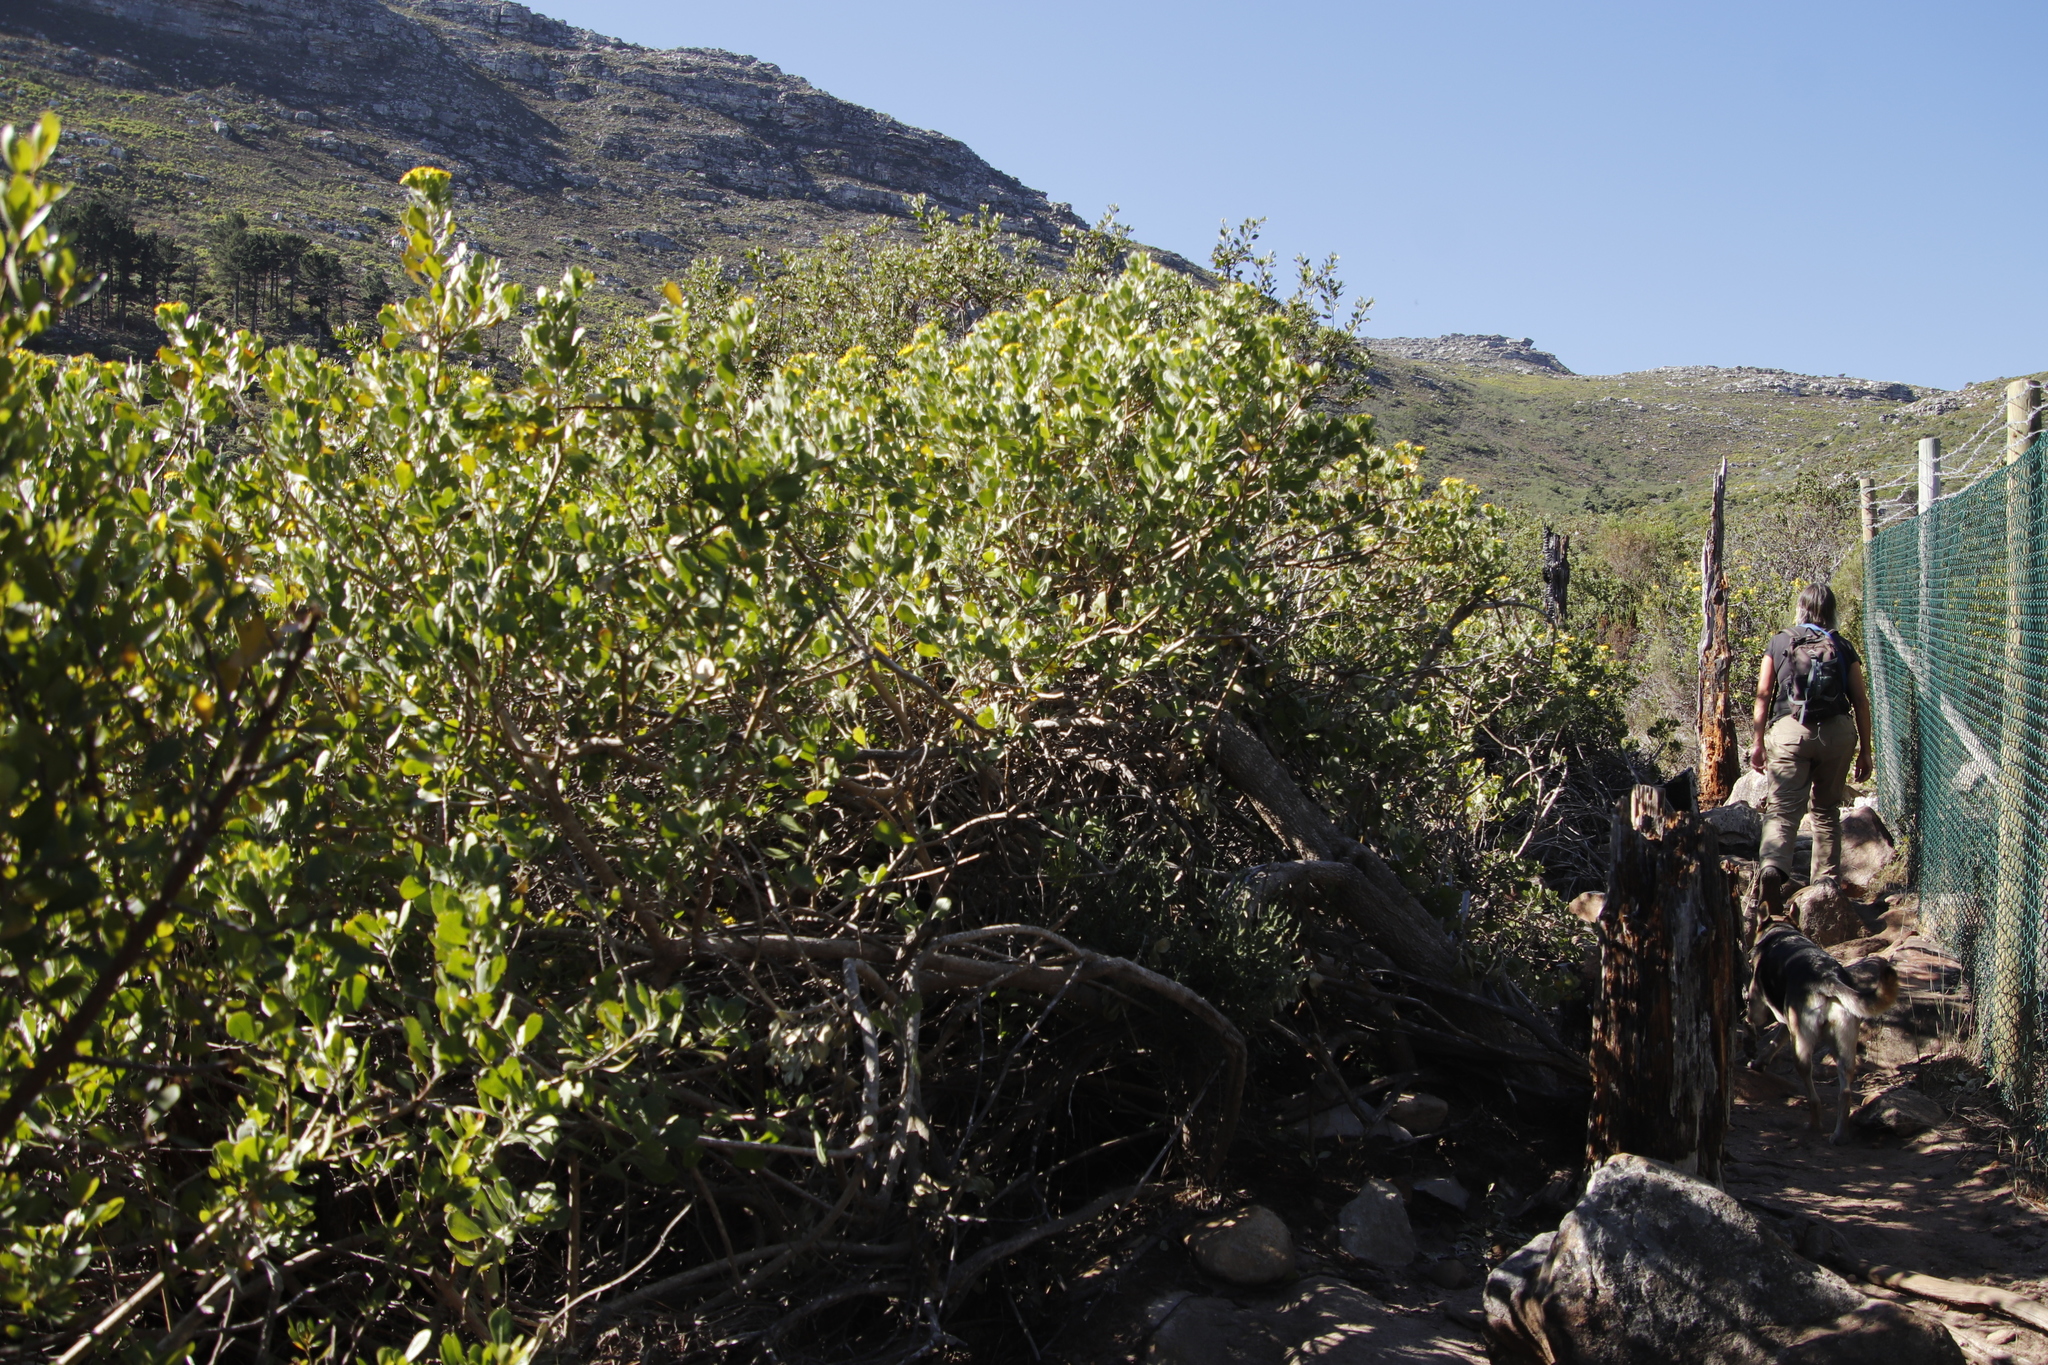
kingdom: Plantae
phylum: Tracheophyta
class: Magnoliopsida
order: Asterales
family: Asteraceae
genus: Osteospermum
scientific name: Osteospermum moniliferum
